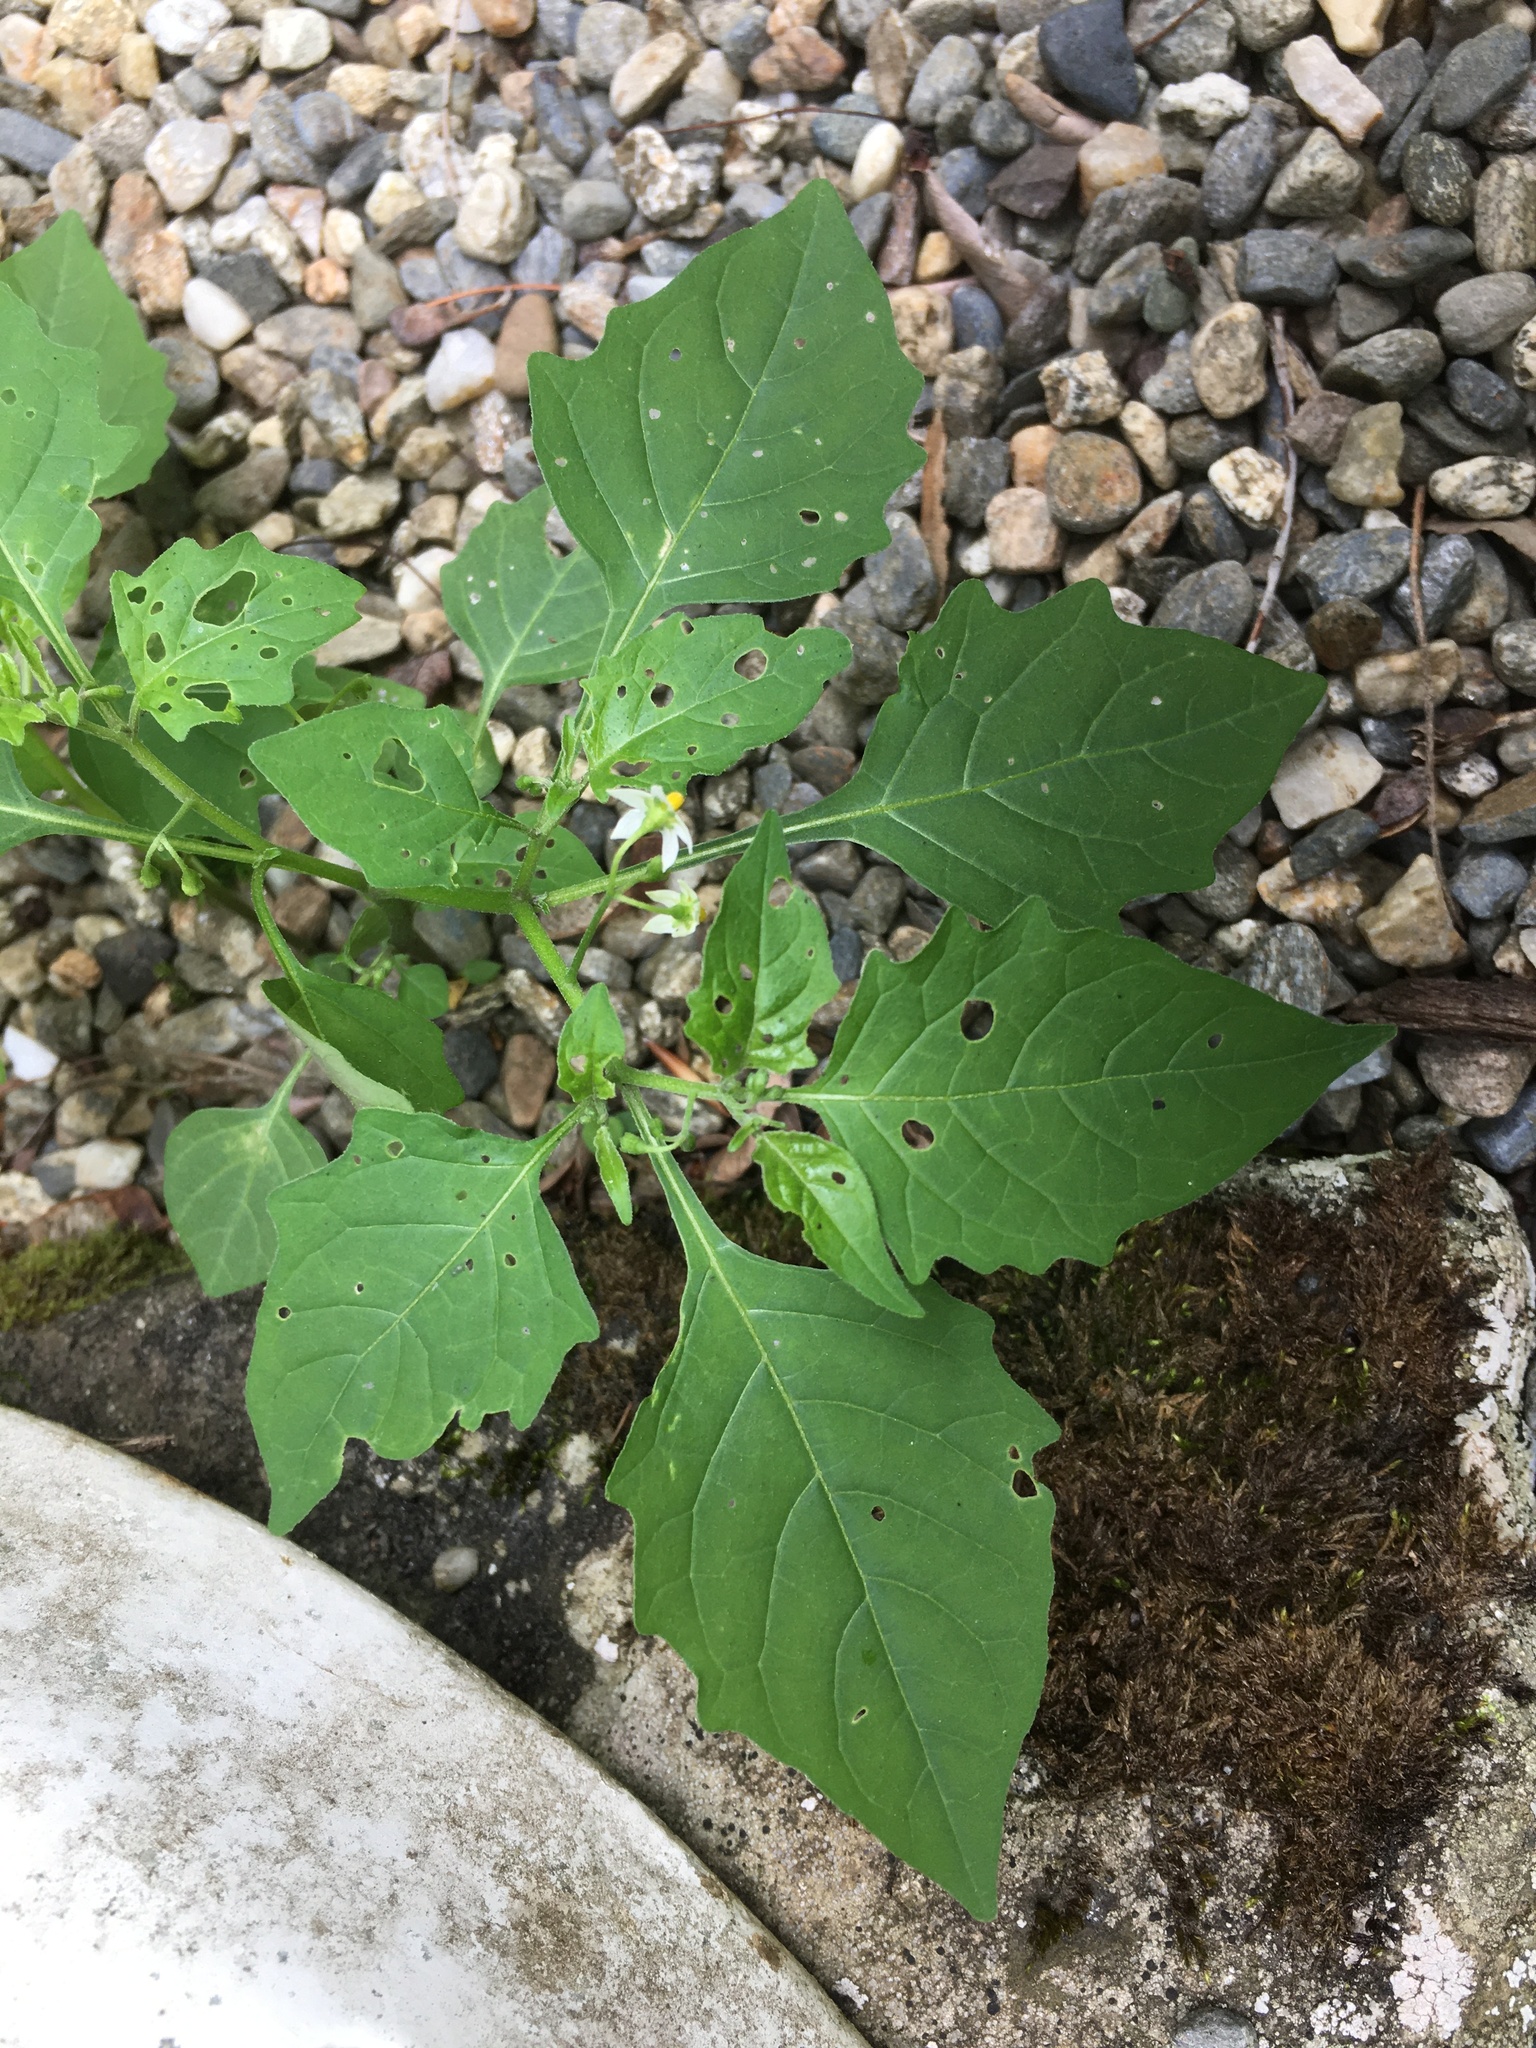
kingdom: Plantae
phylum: Tracheophyta
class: Magnoliopsida
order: Solanales
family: Solanaceae
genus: Solanum
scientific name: Solanum emulans
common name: Eastern black nightshade
